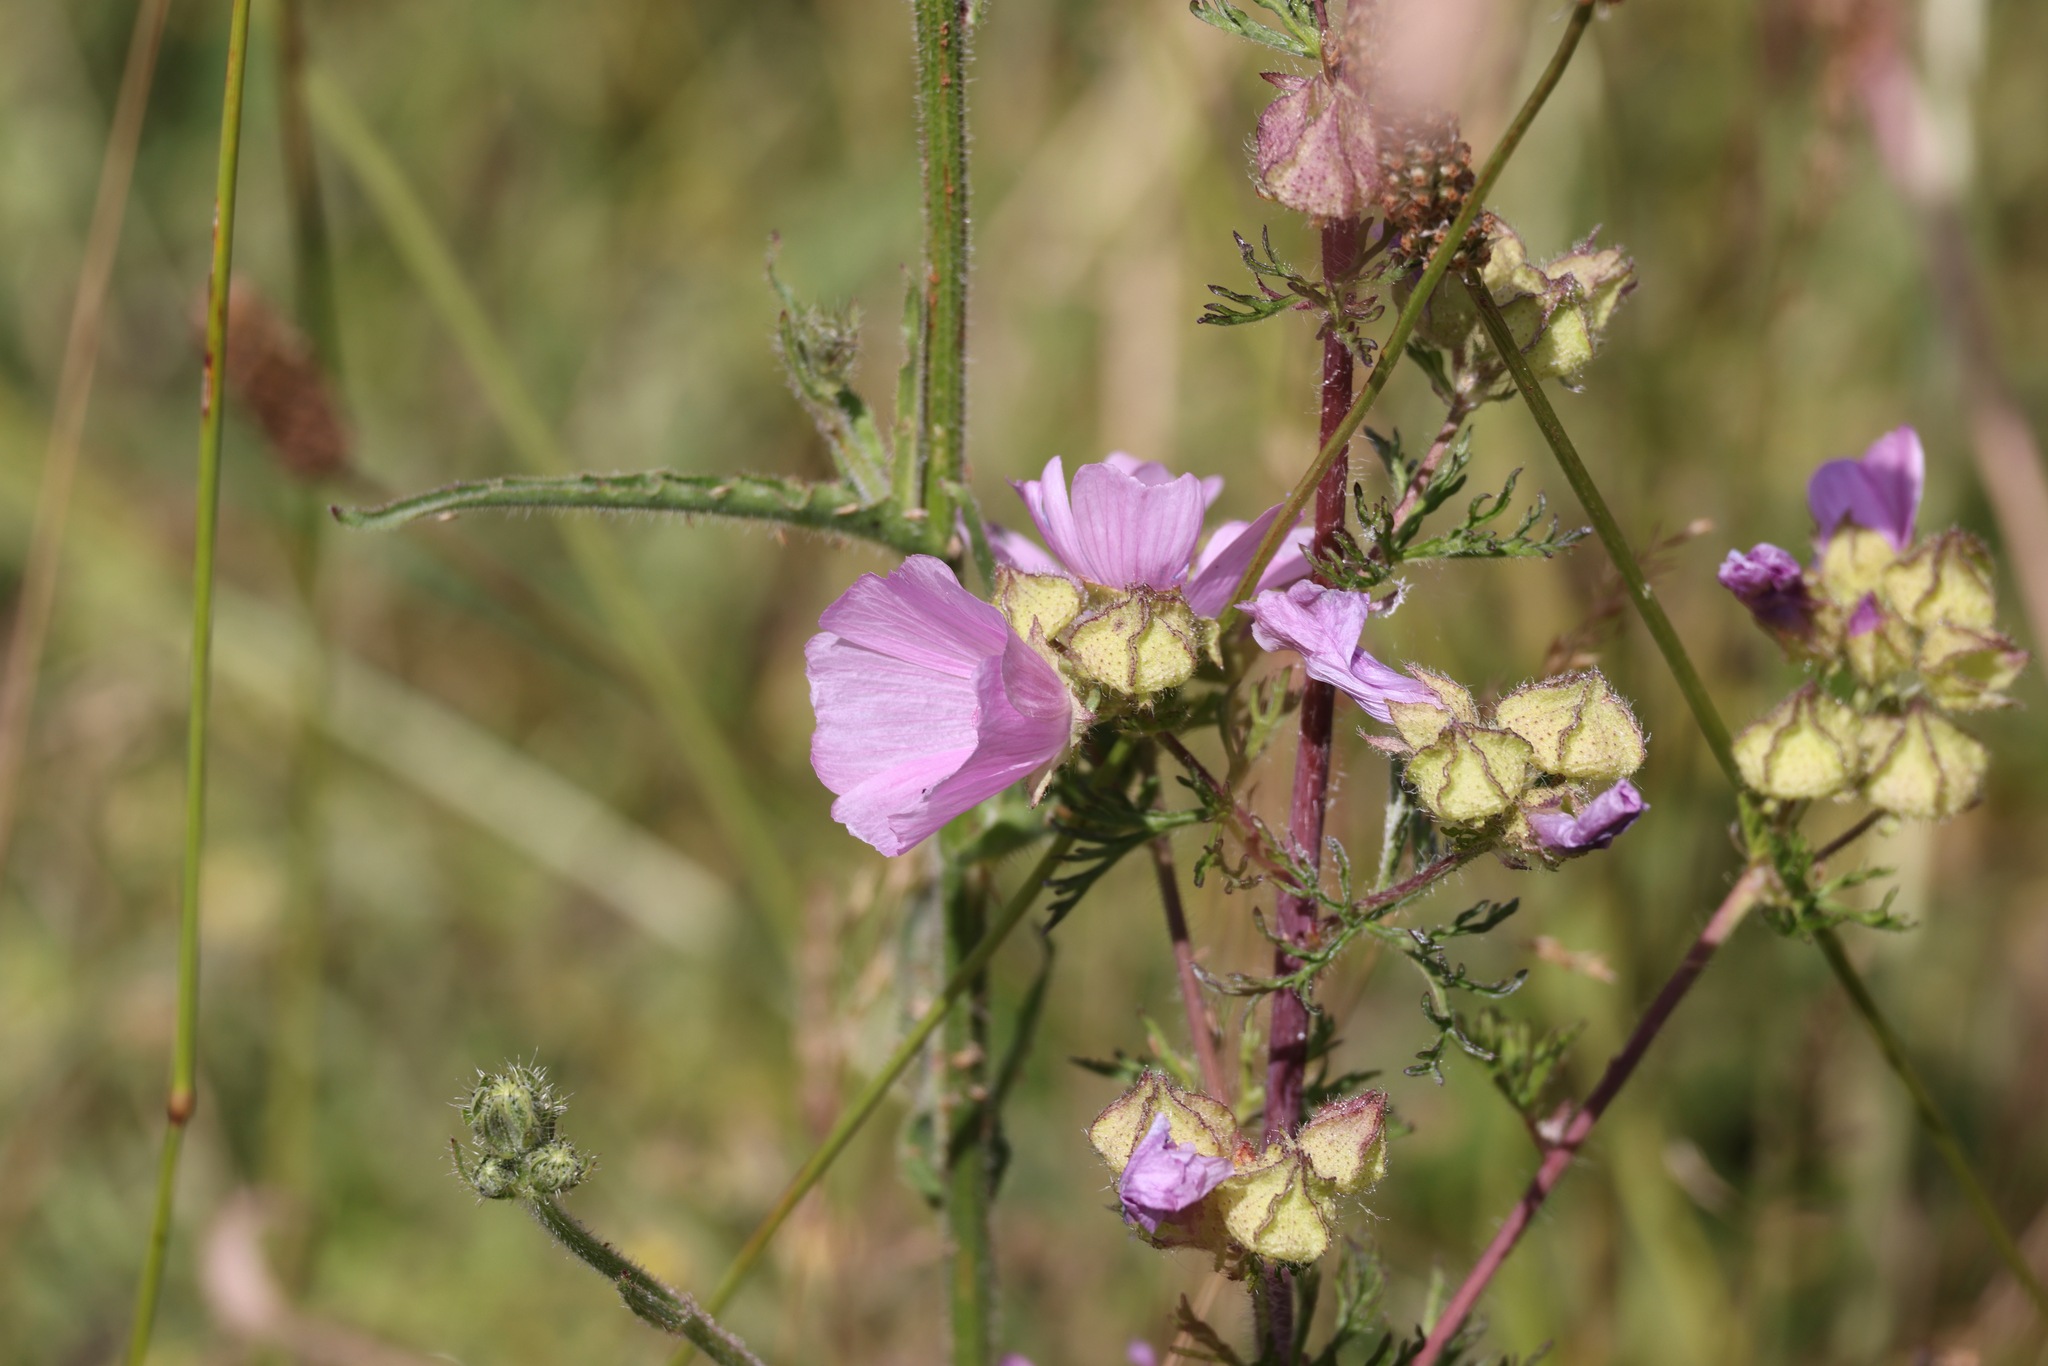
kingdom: Plantae
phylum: Tracheophyta
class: Magnoliopsida
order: Malvales
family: Malvaceae
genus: Malva
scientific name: Malva moschata
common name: Musk mallow
